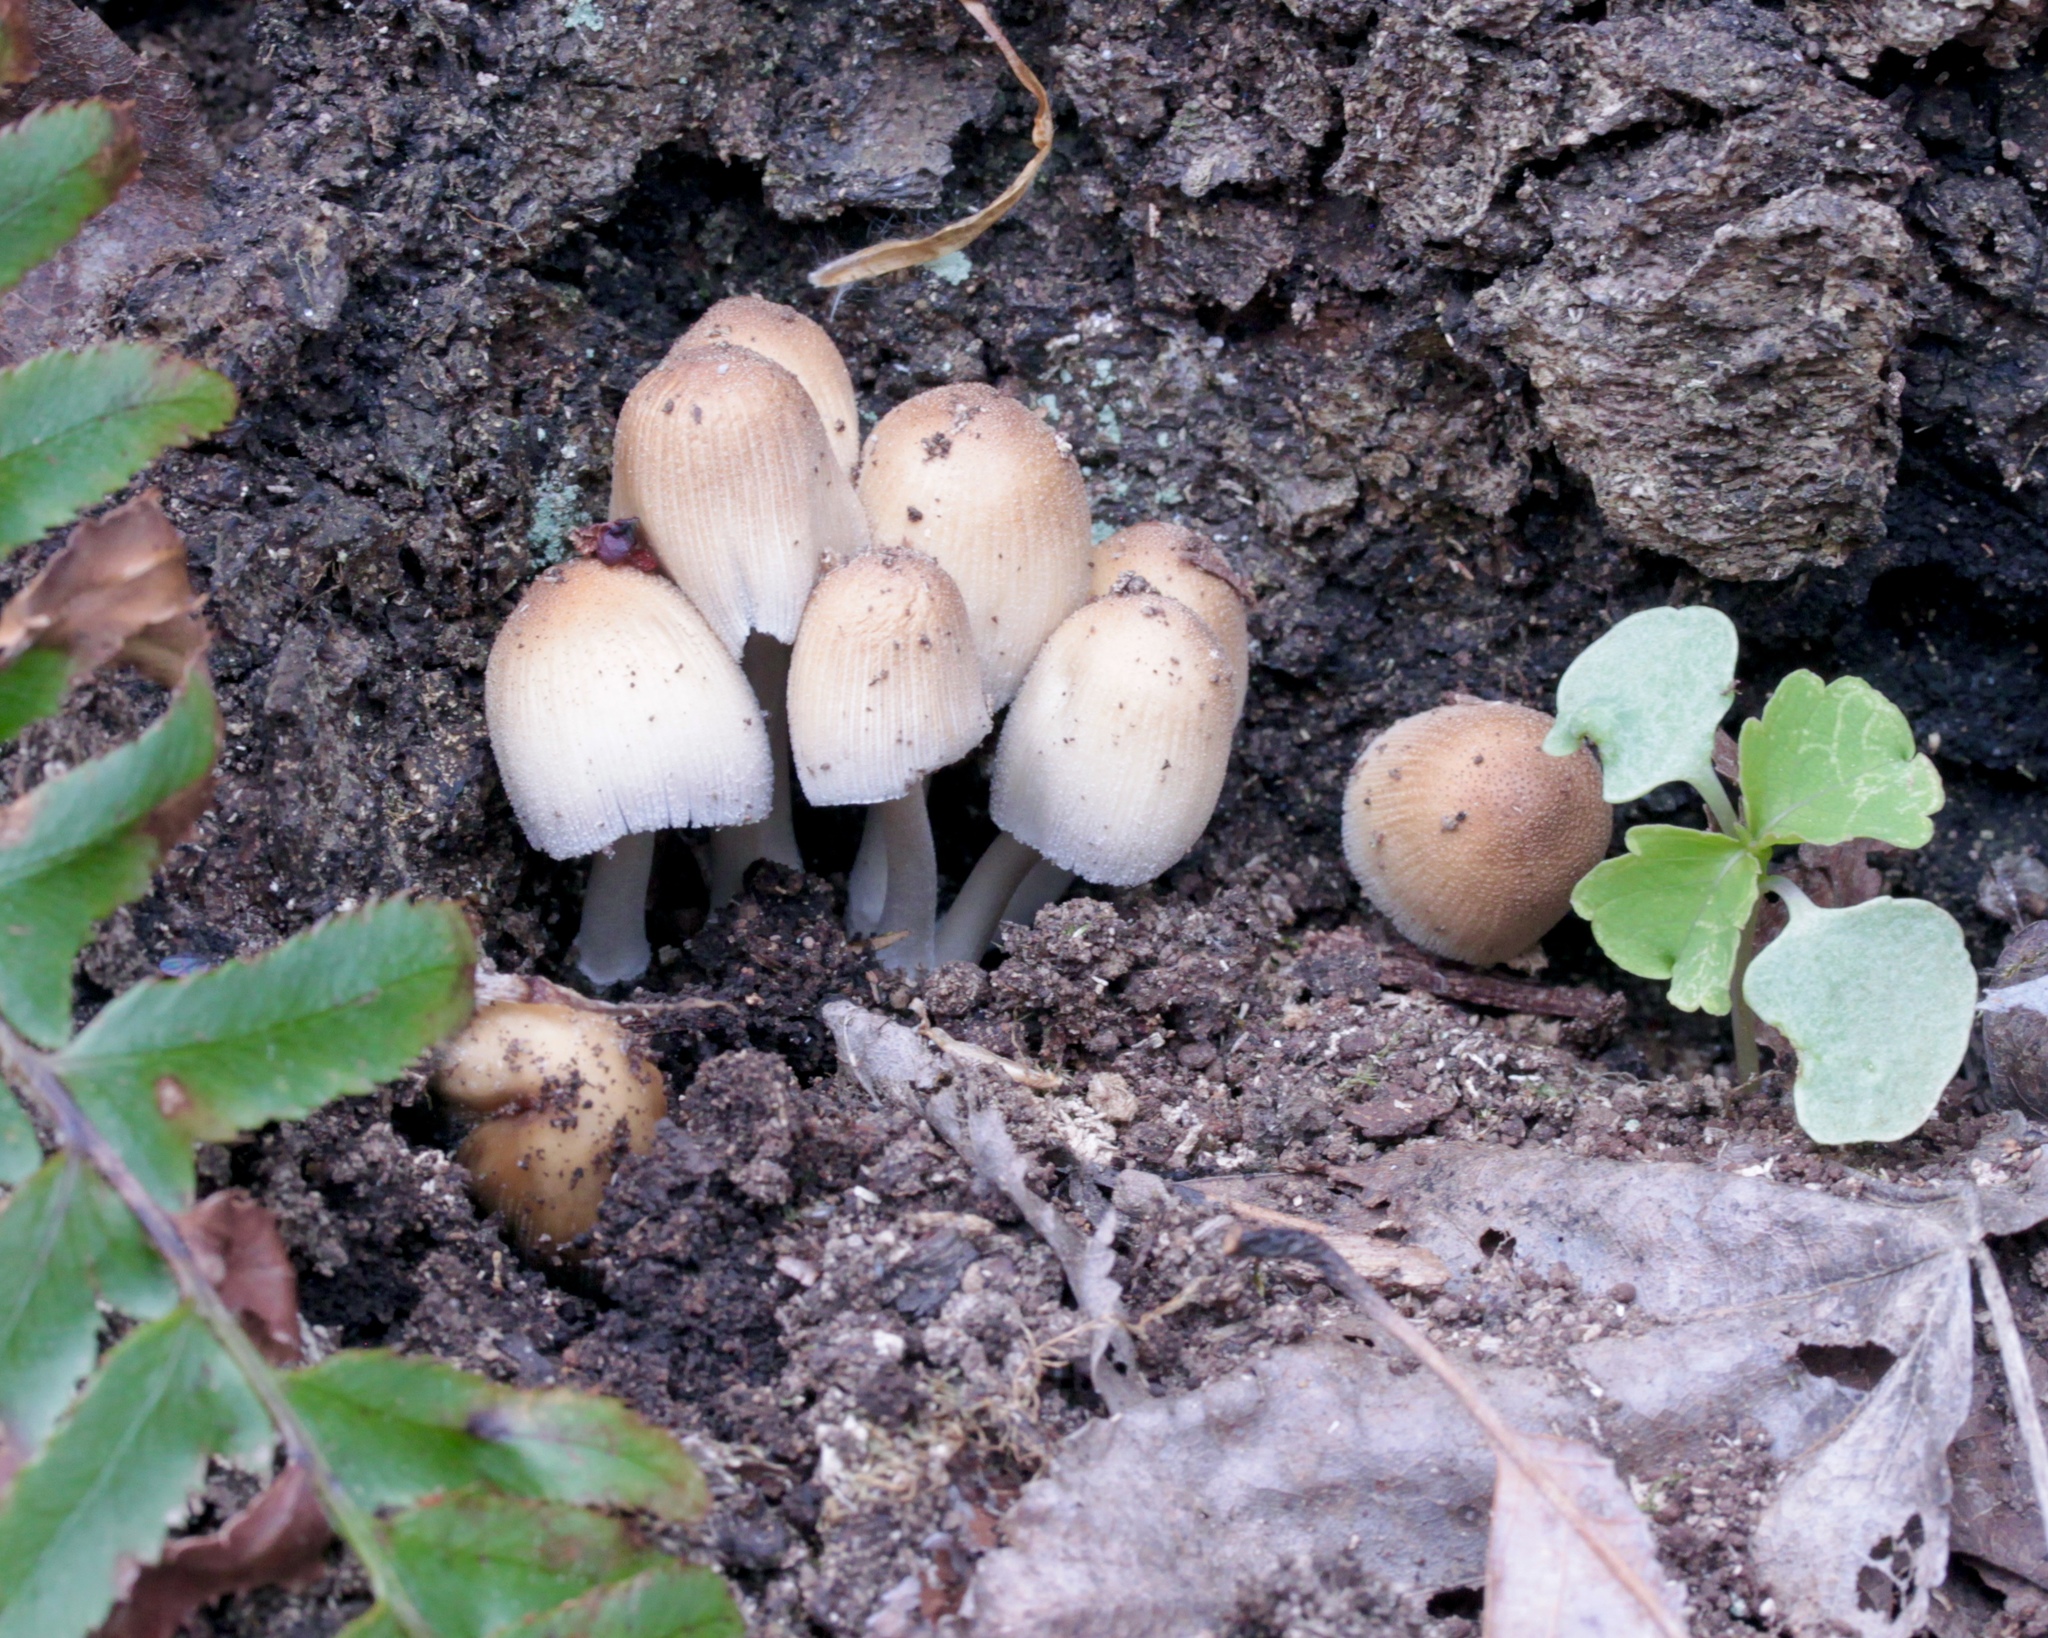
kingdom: Fungi
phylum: Basidiomycota
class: Agaricomycetes
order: Agaricales
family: Psathyrellaceae
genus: Coprinellus
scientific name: Coprinellus micaceus
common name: Glistening ink-cap
